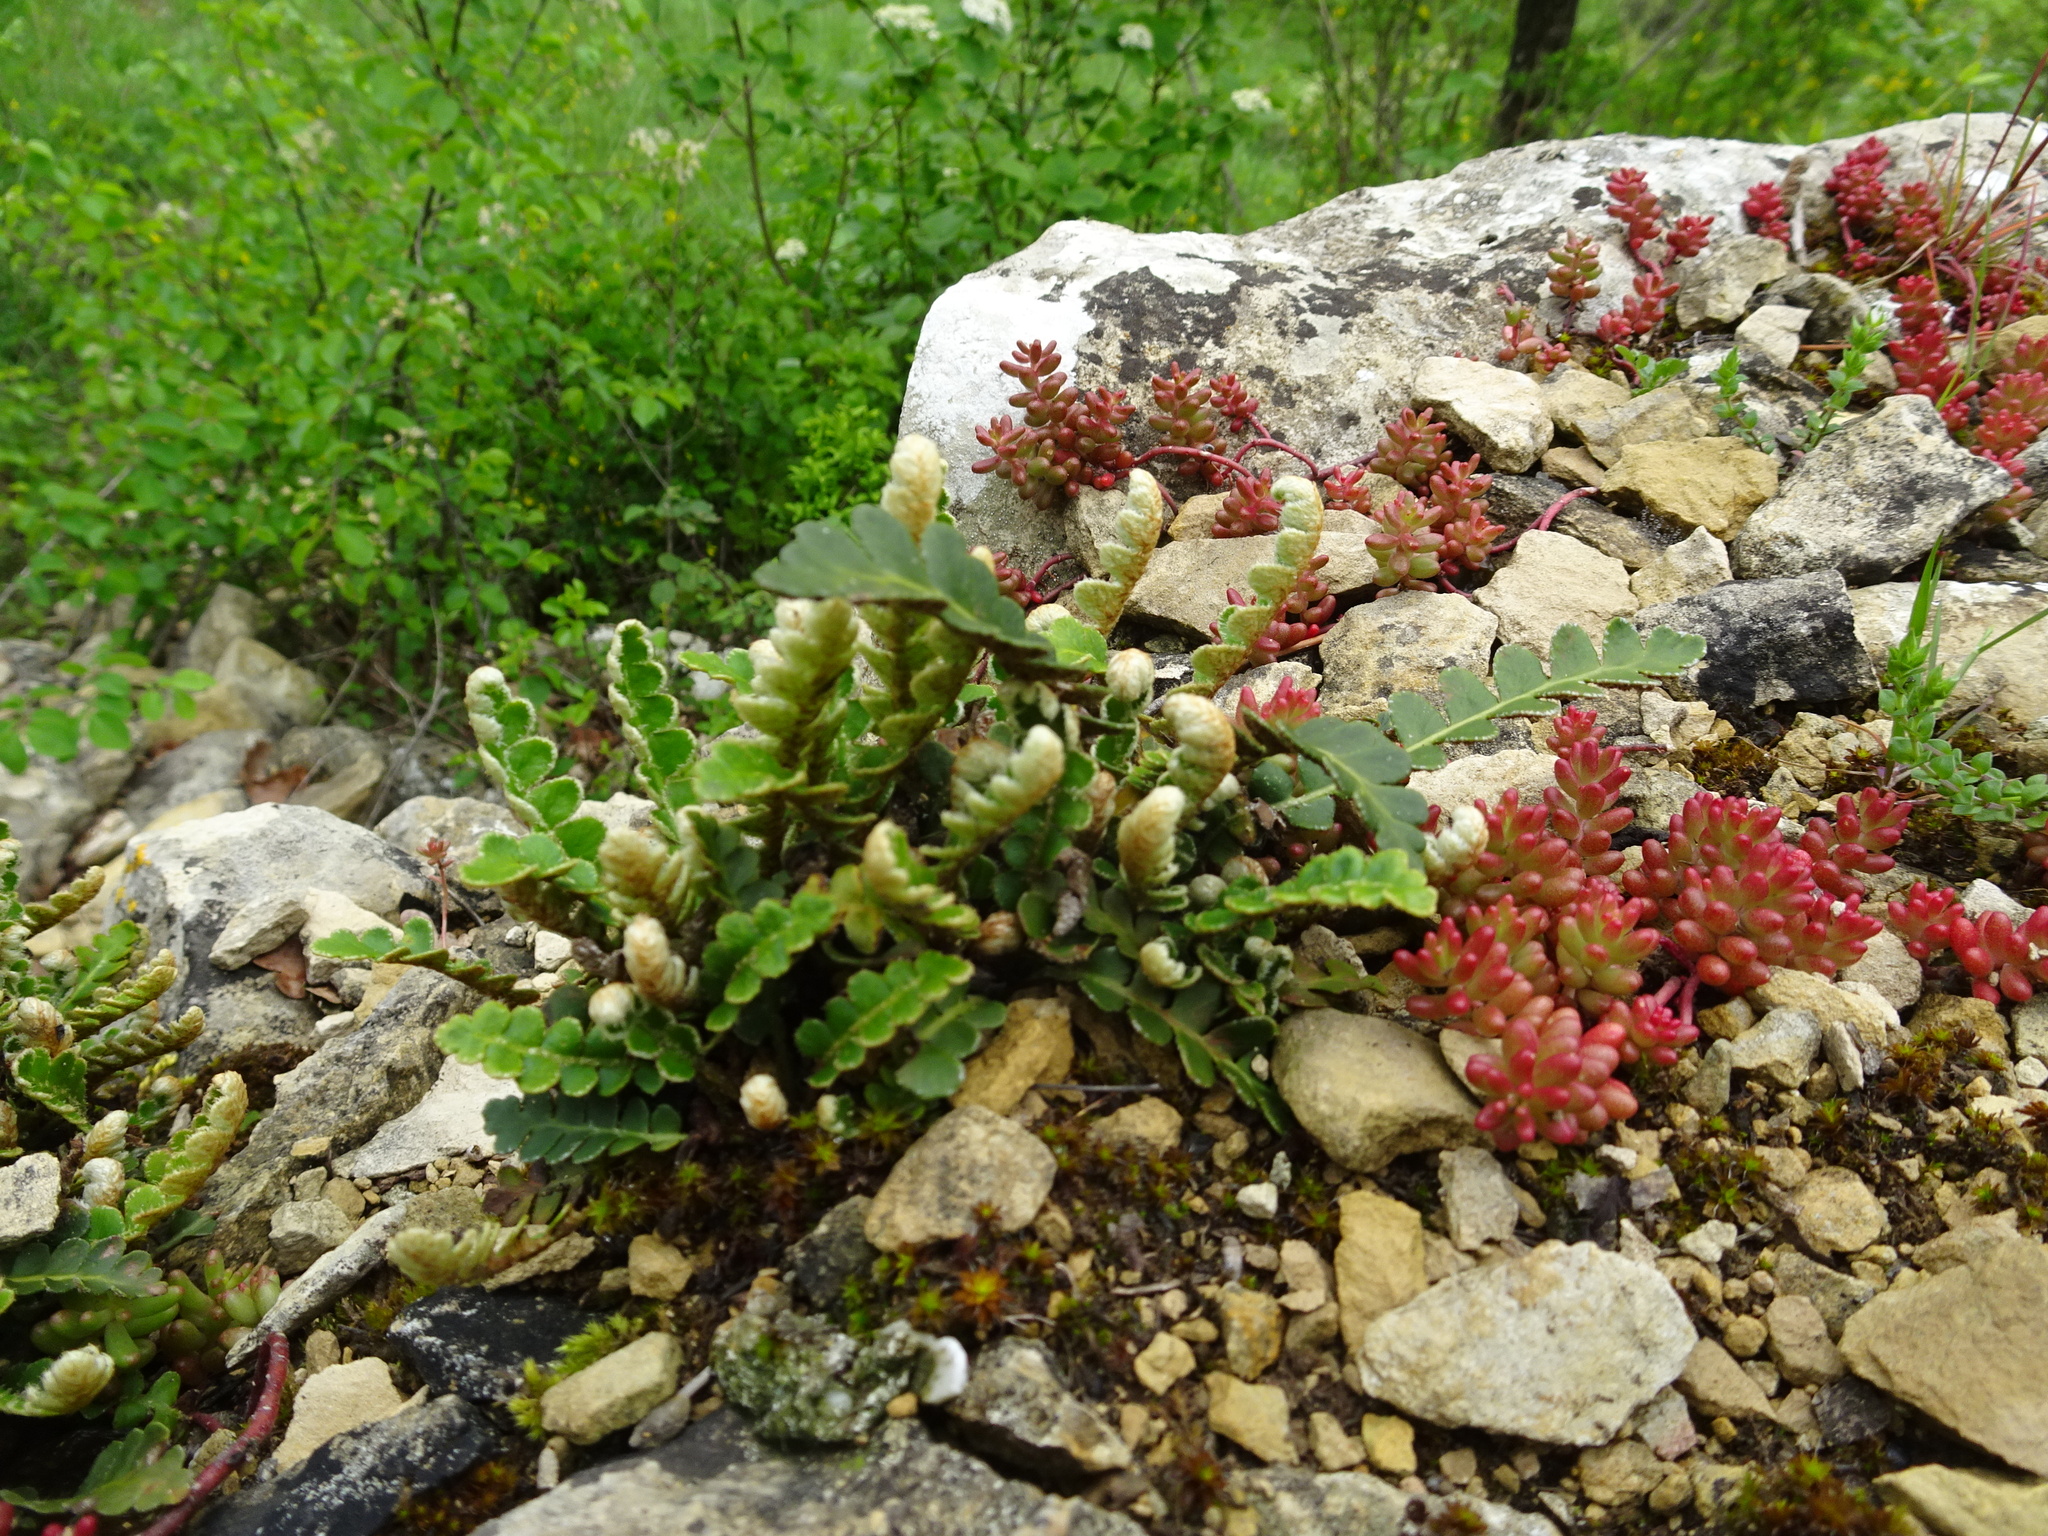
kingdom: Plantae
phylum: Tracheophyta
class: Polypodiopsida
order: Polypodiales
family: Aspleniaceae
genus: Asplenium
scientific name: Asplenium ceterach
